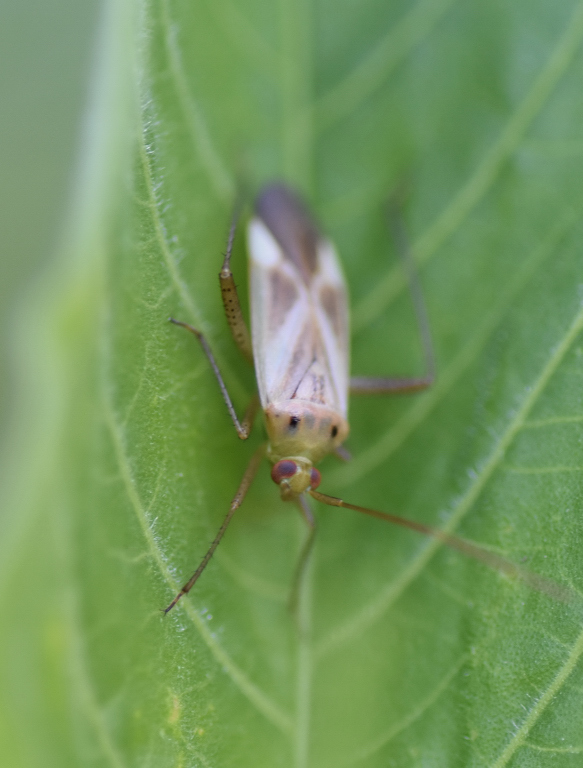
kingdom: Animalia
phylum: Arthropoda
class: Insecta
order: Hemiptera
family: Miridae
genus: Adelphocoris
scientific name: Adelphocoris lineolatus
